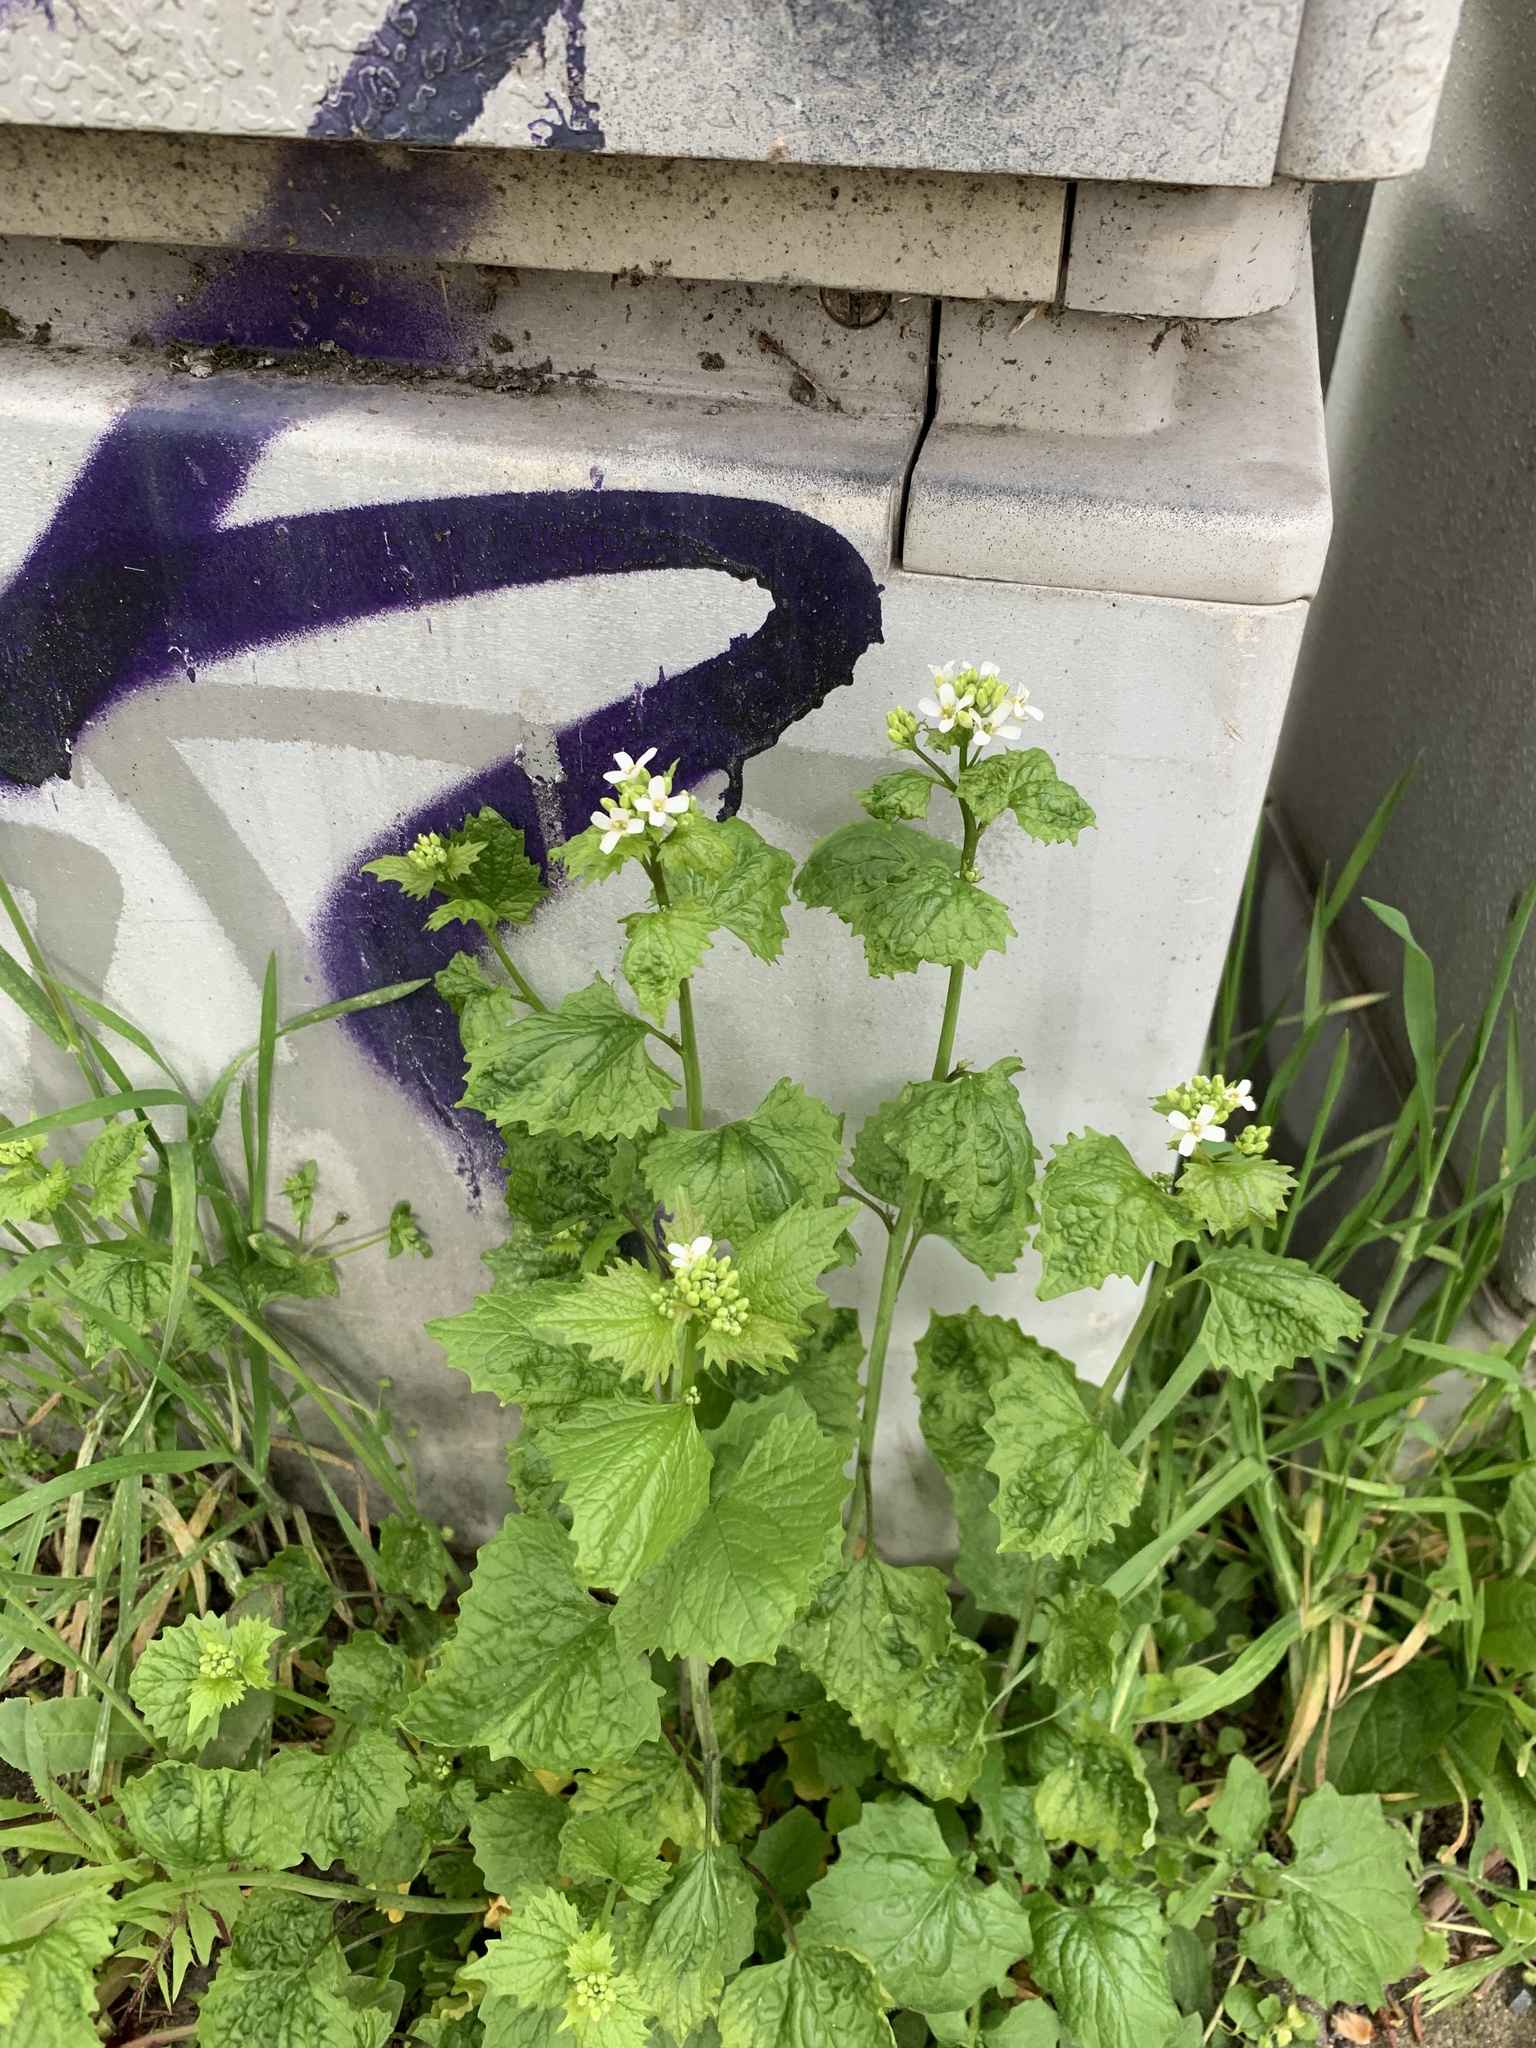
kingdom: Plantae
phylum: Tracheophyta
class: Magnoliopsida
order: Brassicales
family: Brassicaceae
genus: Alliaria
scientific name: Alliaria petiolata
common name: Garlic mustard
